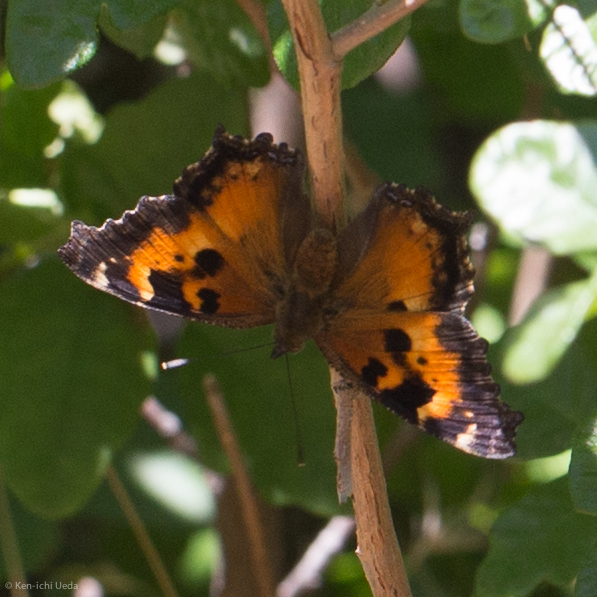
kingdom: Animalia
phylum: Arthropoda
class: Insecta
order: Lepidoptera
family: Nymphalidae
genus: Nymphalis
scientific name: Nymphalis californica
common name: California tortoiseshell
